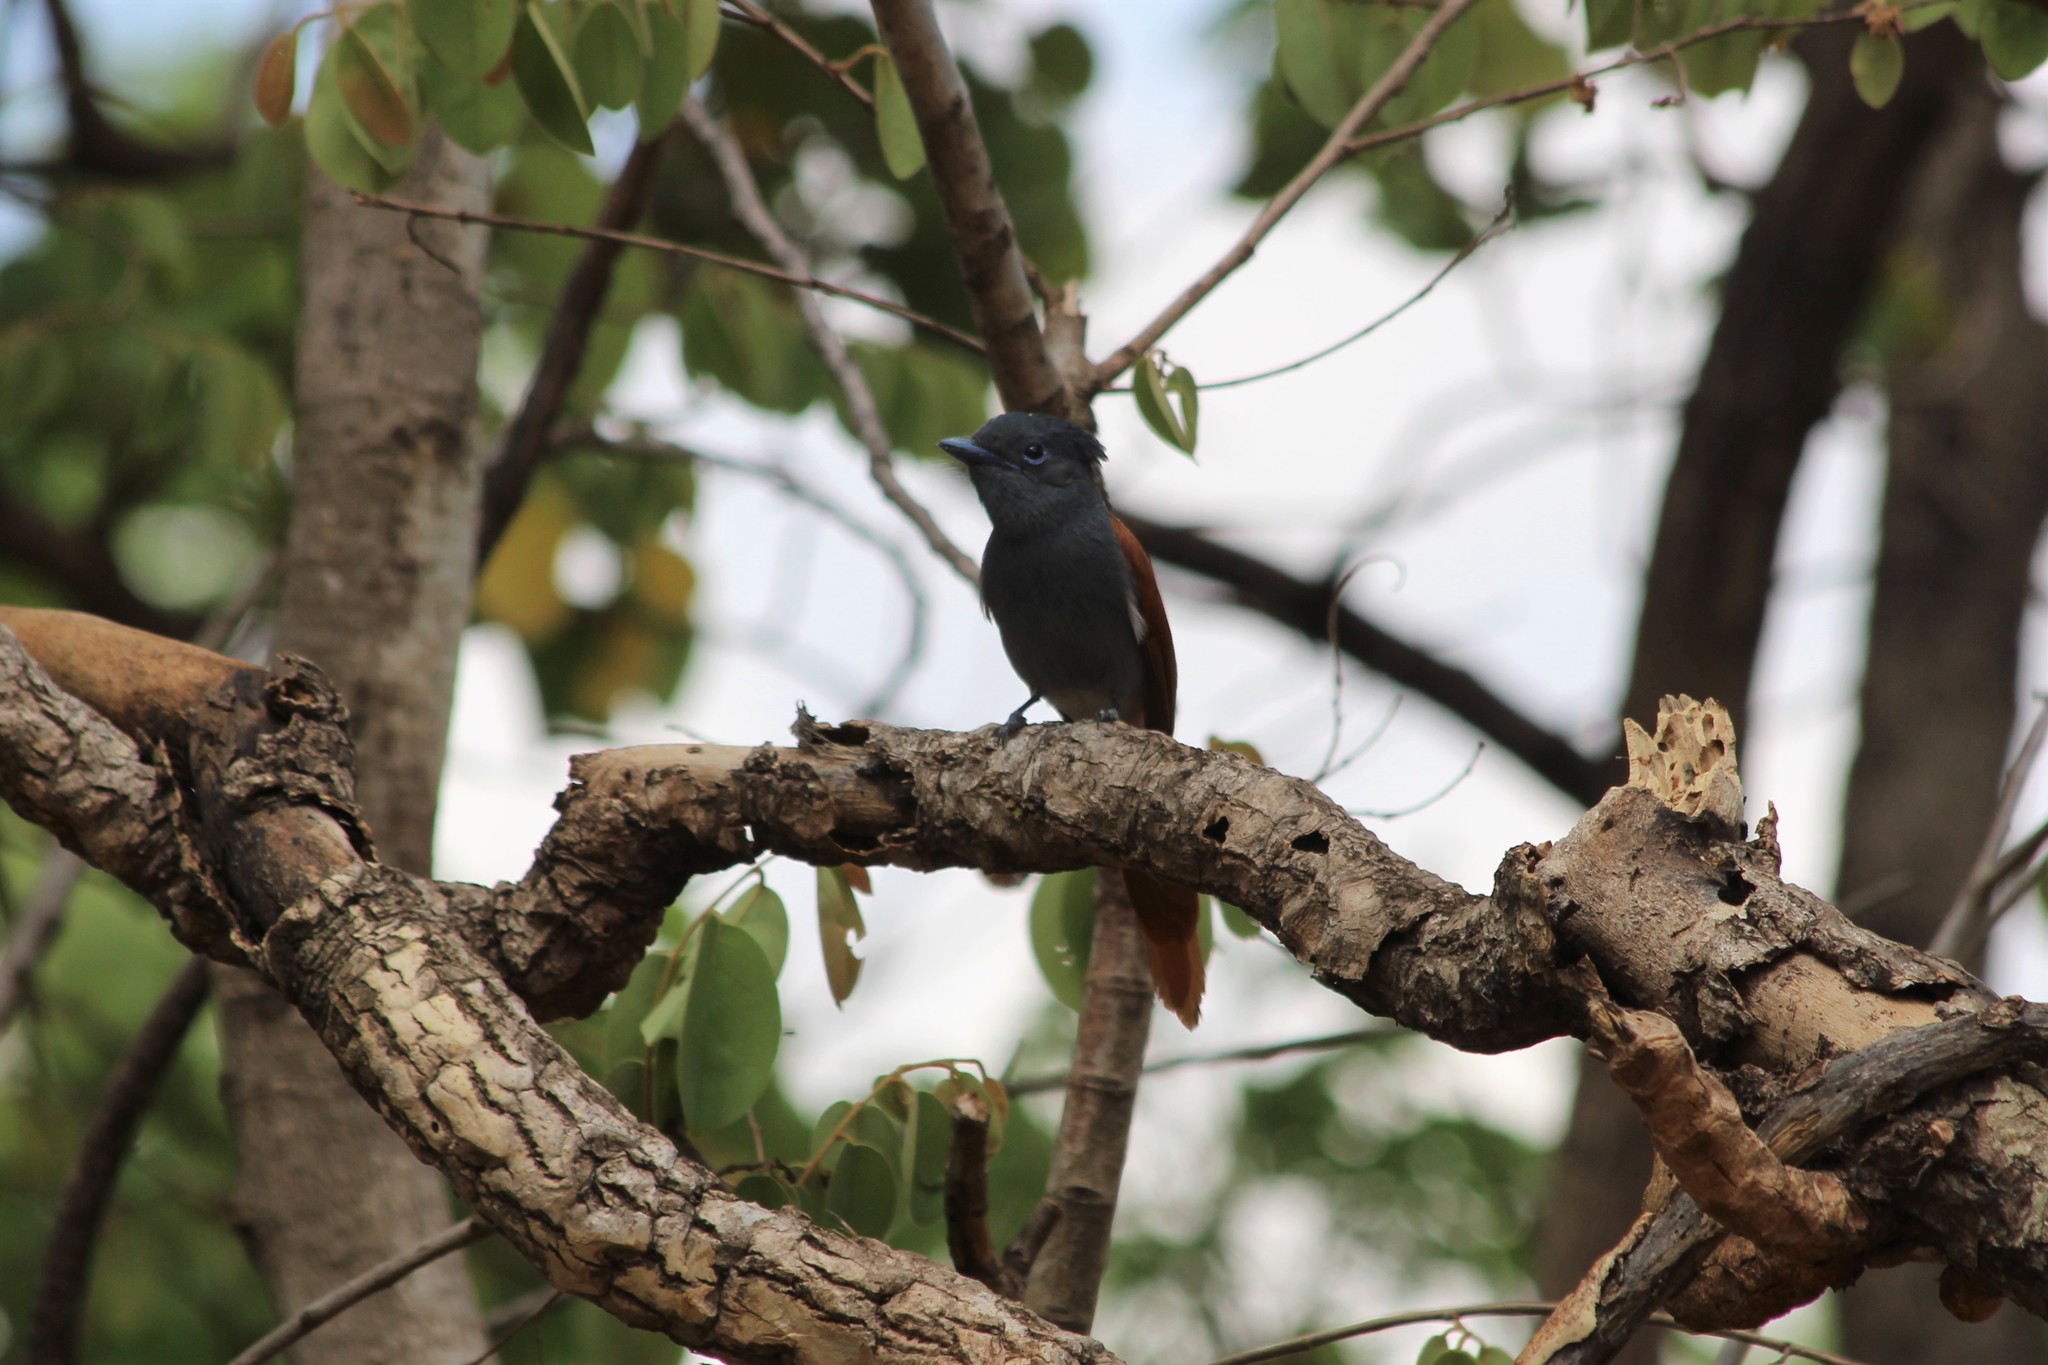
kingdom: Animalia
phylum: Chordata
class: Aves
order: Passeriformes
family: Monarchidae
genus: Terpsiphone
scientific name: Terpsiphone viridis
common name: African paradise flycatcher
